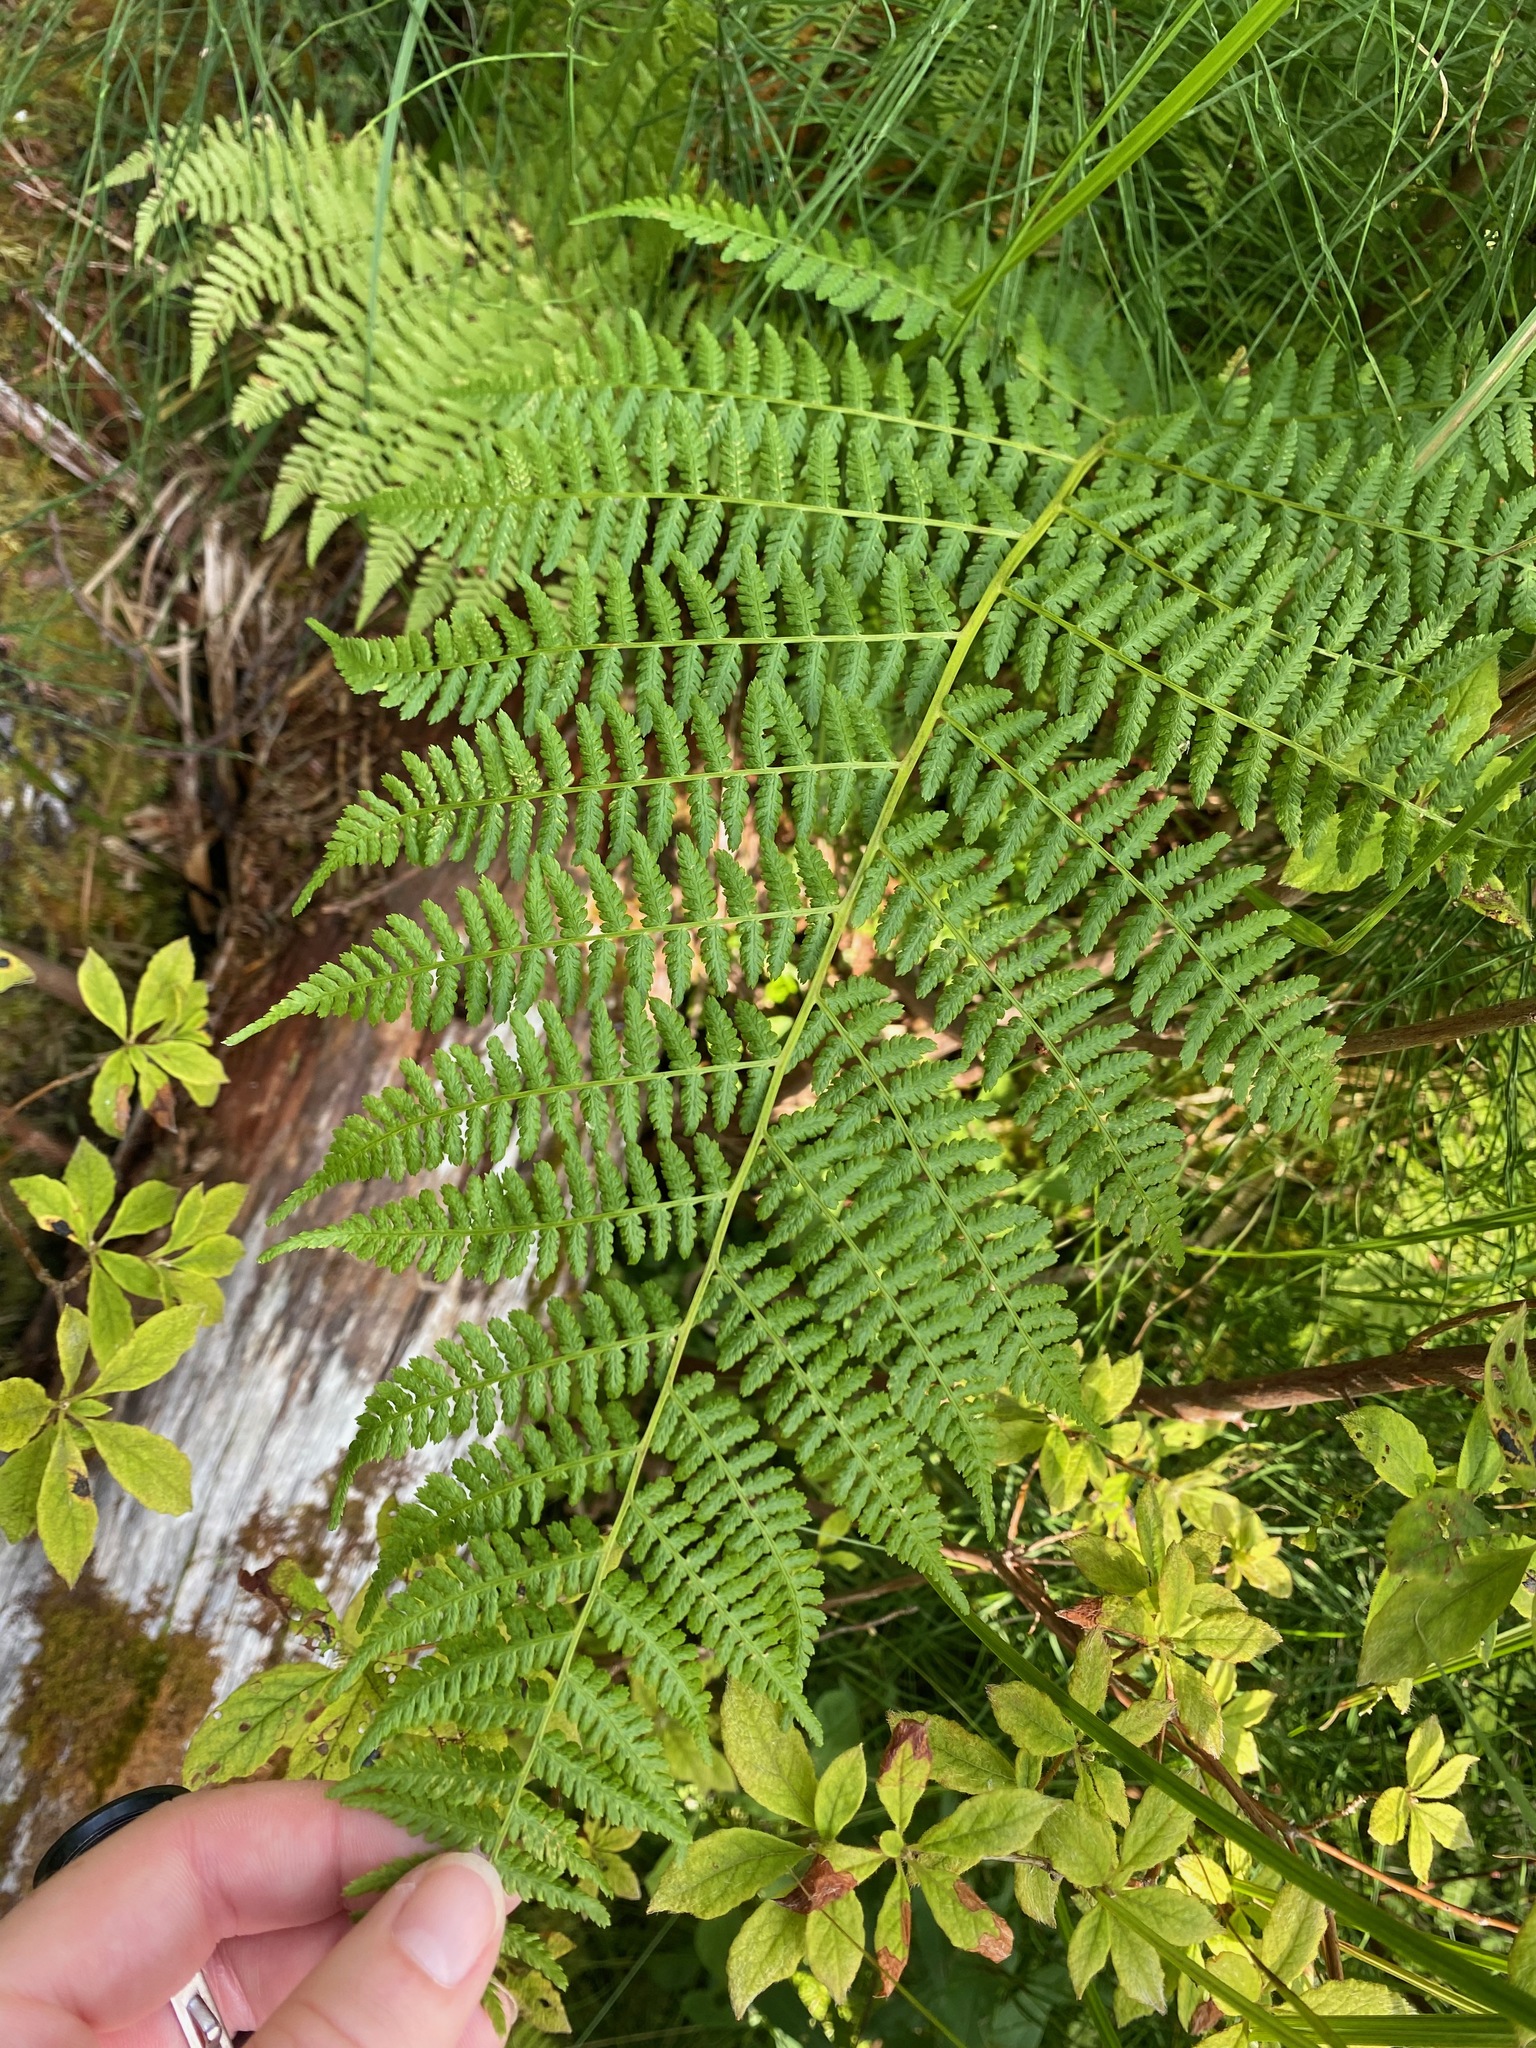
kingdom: Plantae
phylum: Tracheophyta
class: Polypodiopsida
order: Polypodiales
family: Athyriaceae
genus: Athyrium
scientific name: Athyrium filix-femina
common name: Lady fern
